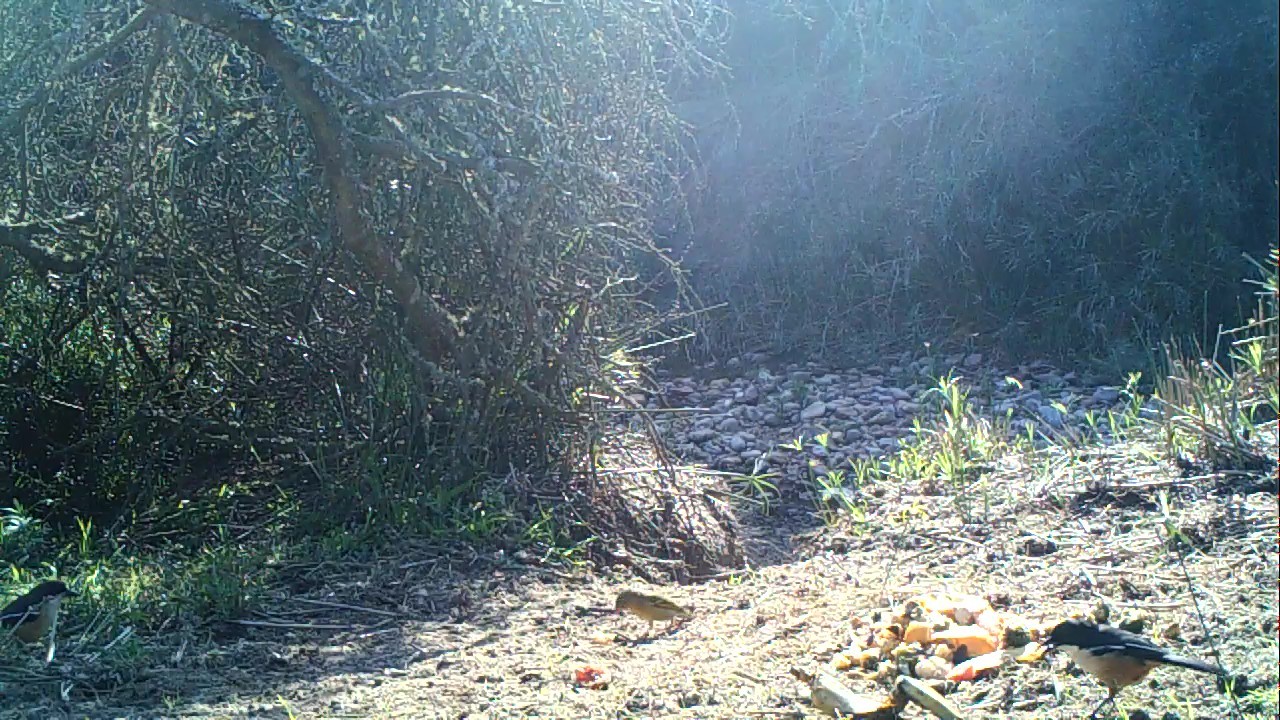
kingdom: Animalia
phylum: Chordata
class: Aves
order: Passeriformes
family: Malaconotidae
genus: Laniarius
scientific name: Laniarius ferrugineus
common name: Southern boubou
